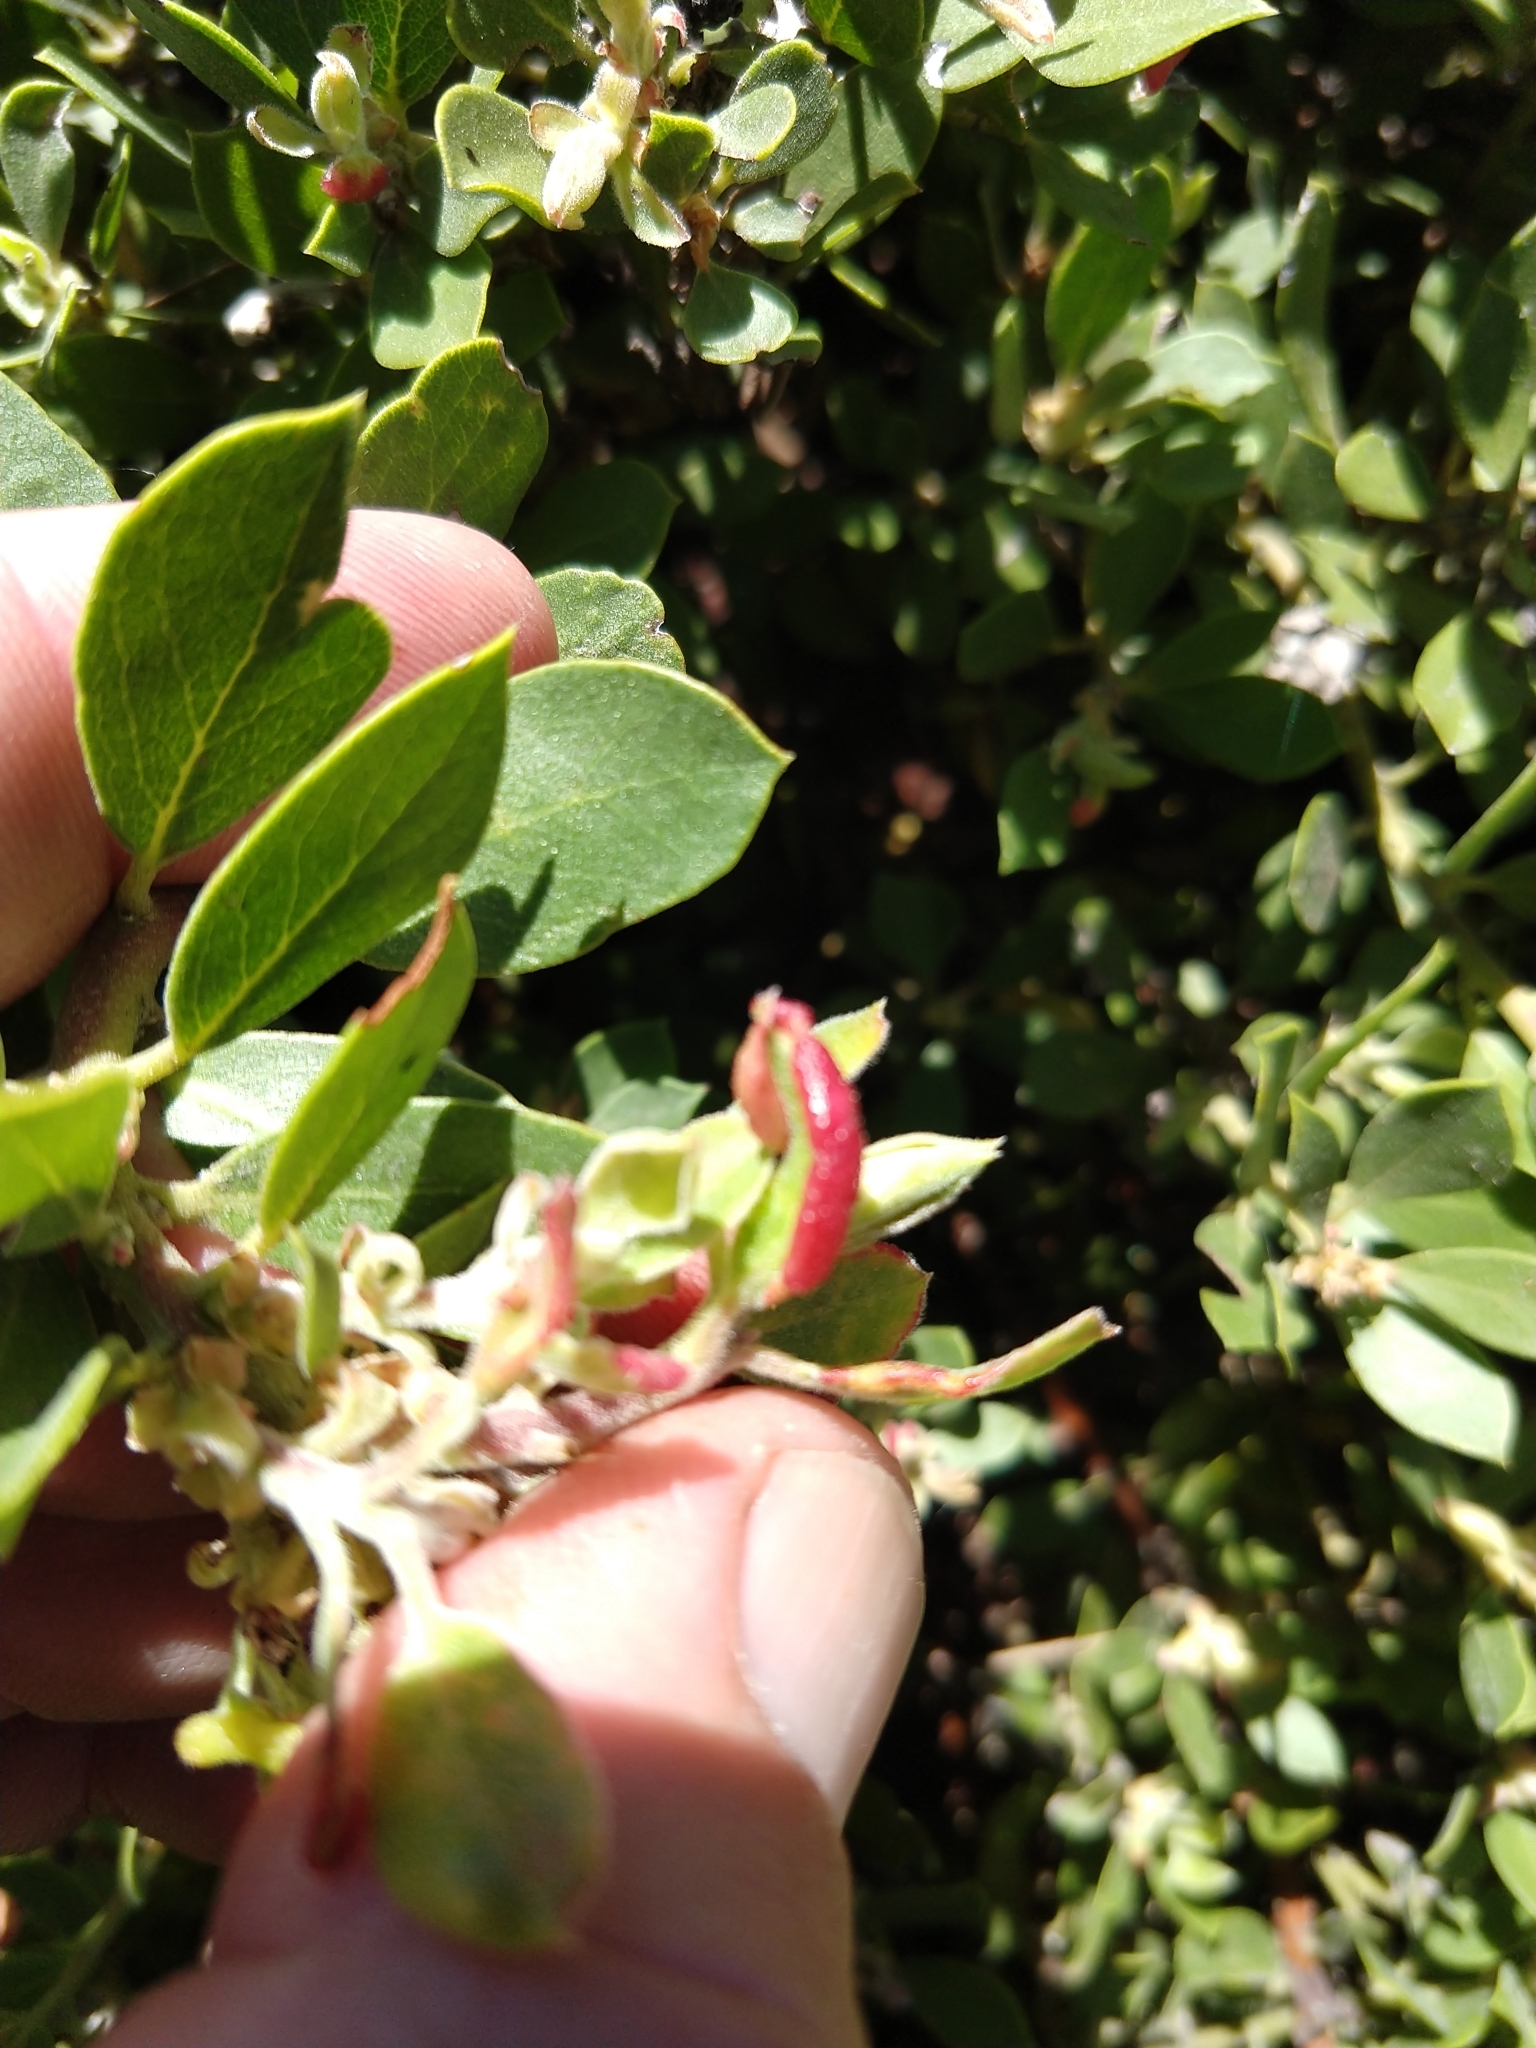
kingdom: Animalia
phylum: Arthropoda
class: Insecta
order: Hemiptera
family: Aphididae
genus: Tamalia
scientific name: Tamalia coweni
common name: Manzanita leafgall aphid
